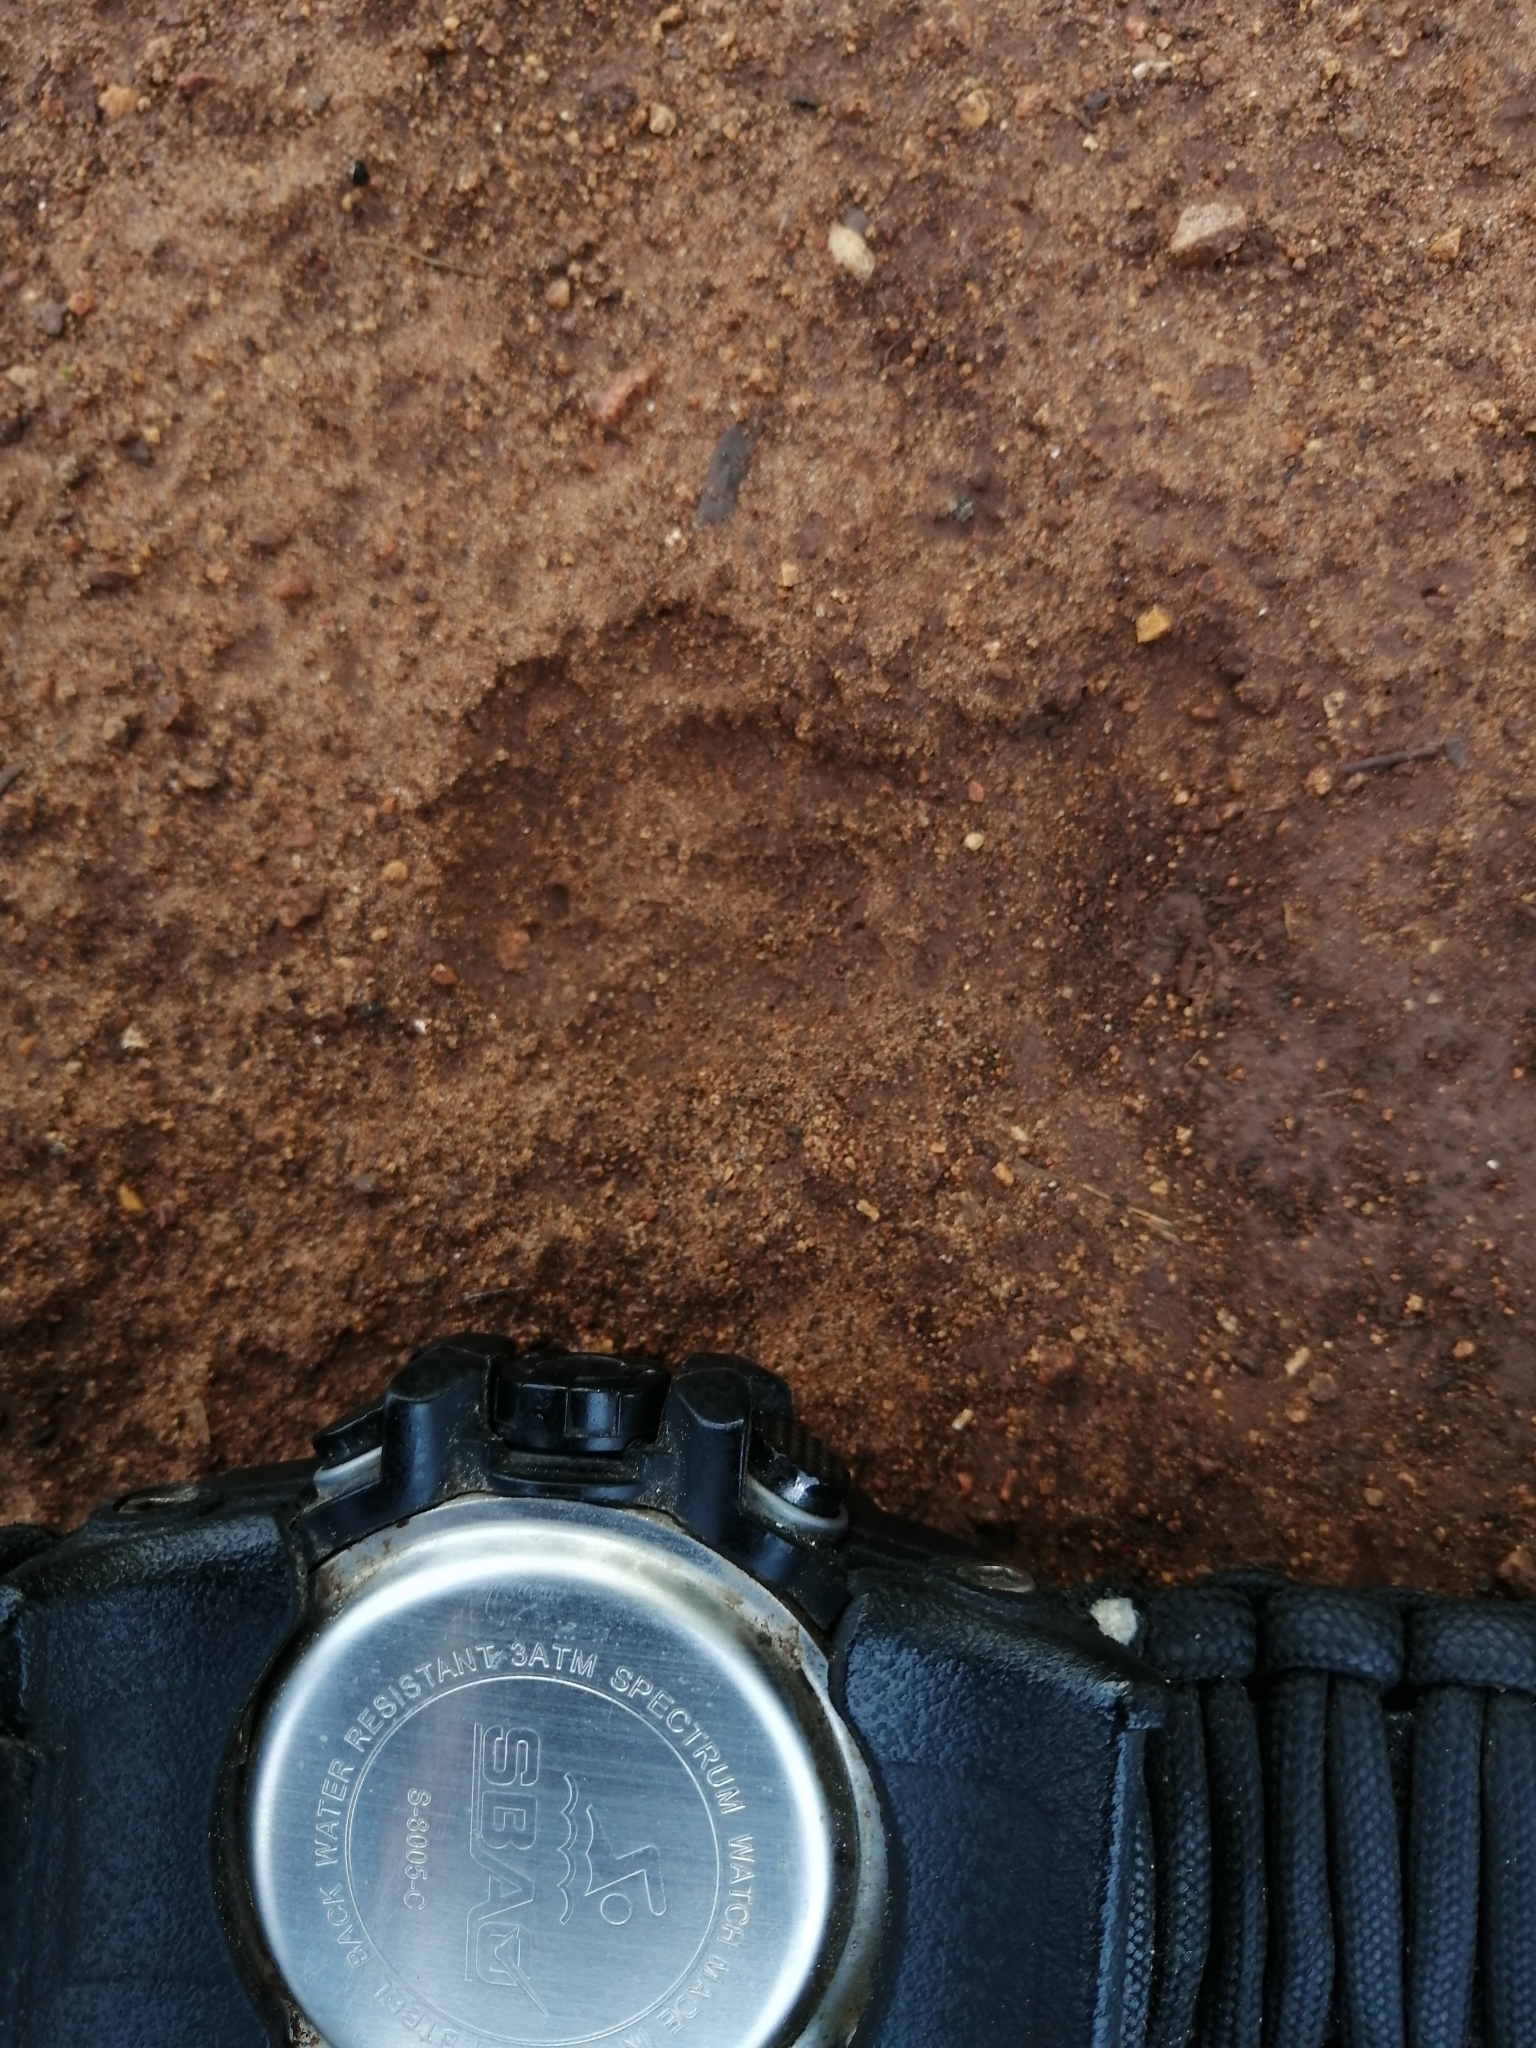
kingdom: Animalia
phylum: Chordata
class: Mammalia
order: Carnivora
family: Mephitidae
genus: Conepatus
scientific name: Conepatus semistriatus
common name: Striped hog-nosed skunk
